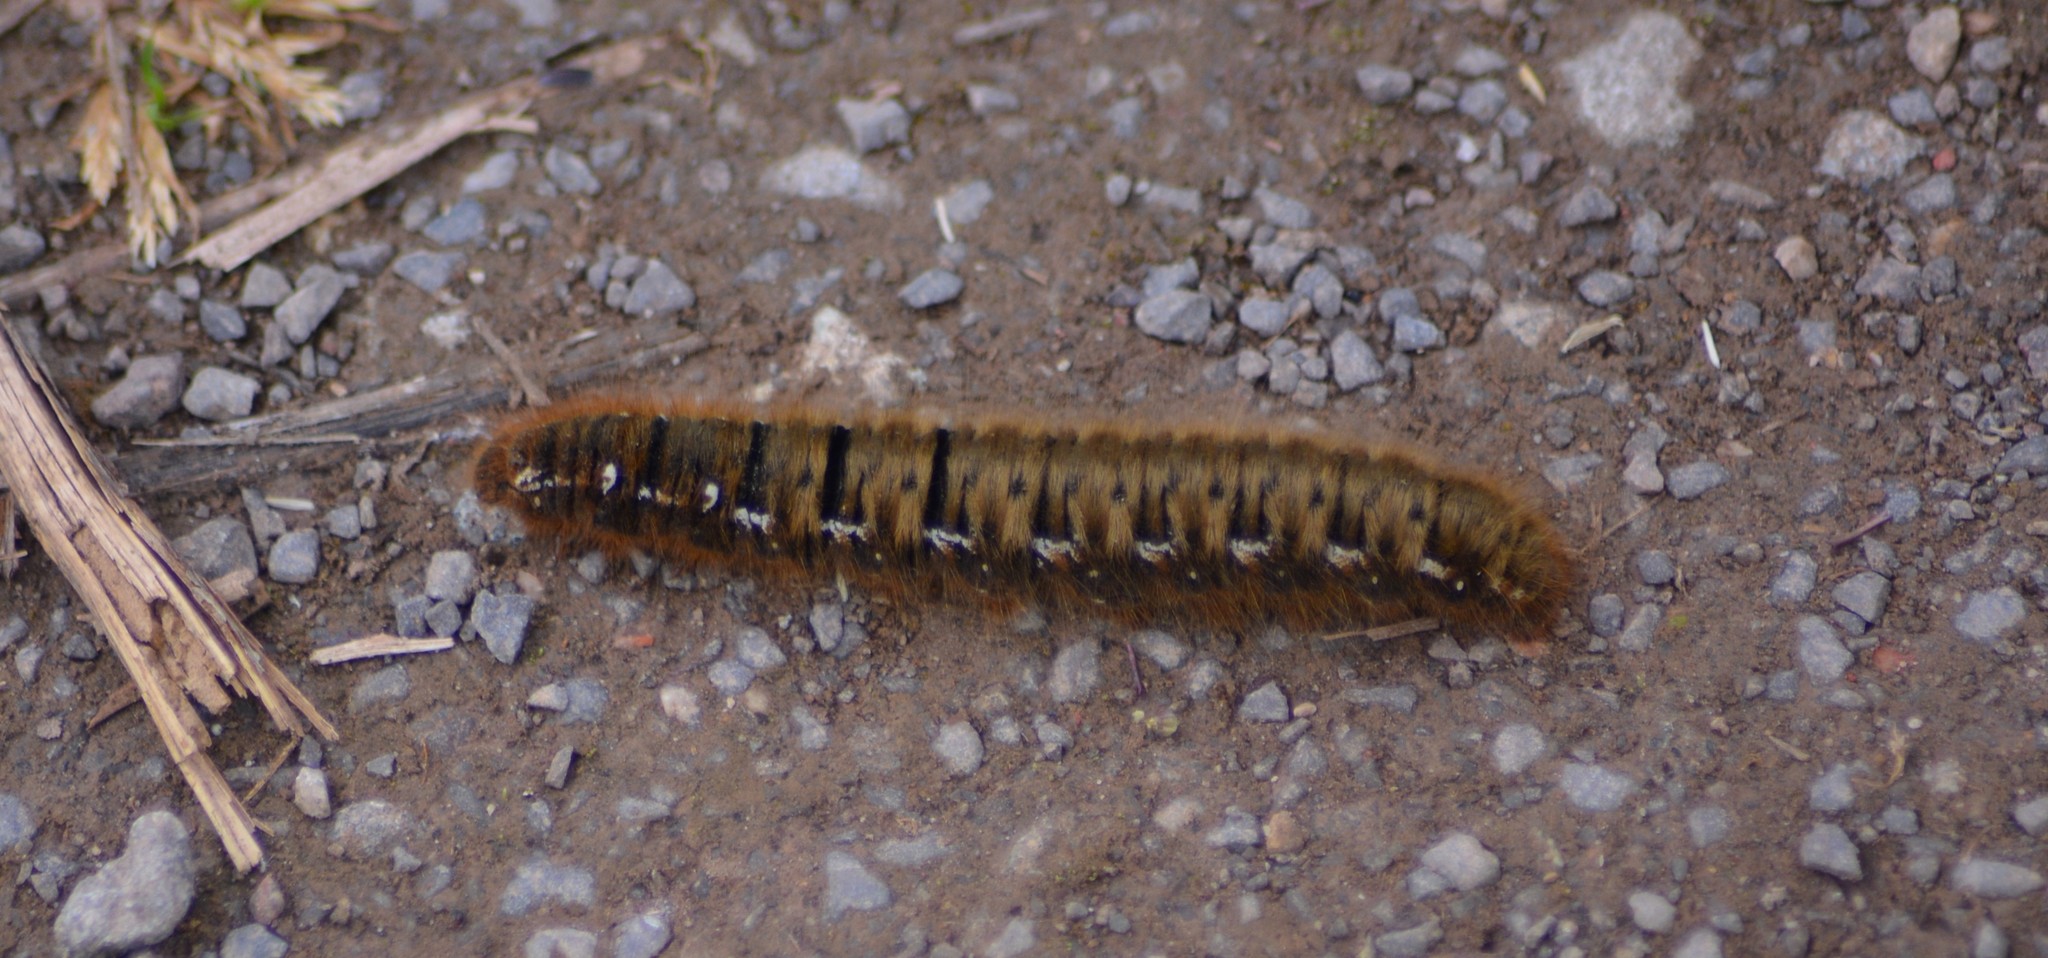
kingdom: Animalia
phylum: Arthropoda
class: Insecta
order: Lepidoptera
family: Lasiocampidae
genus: Lasiocampa
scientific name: Lasiocampa quercus
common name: Oak eggar
